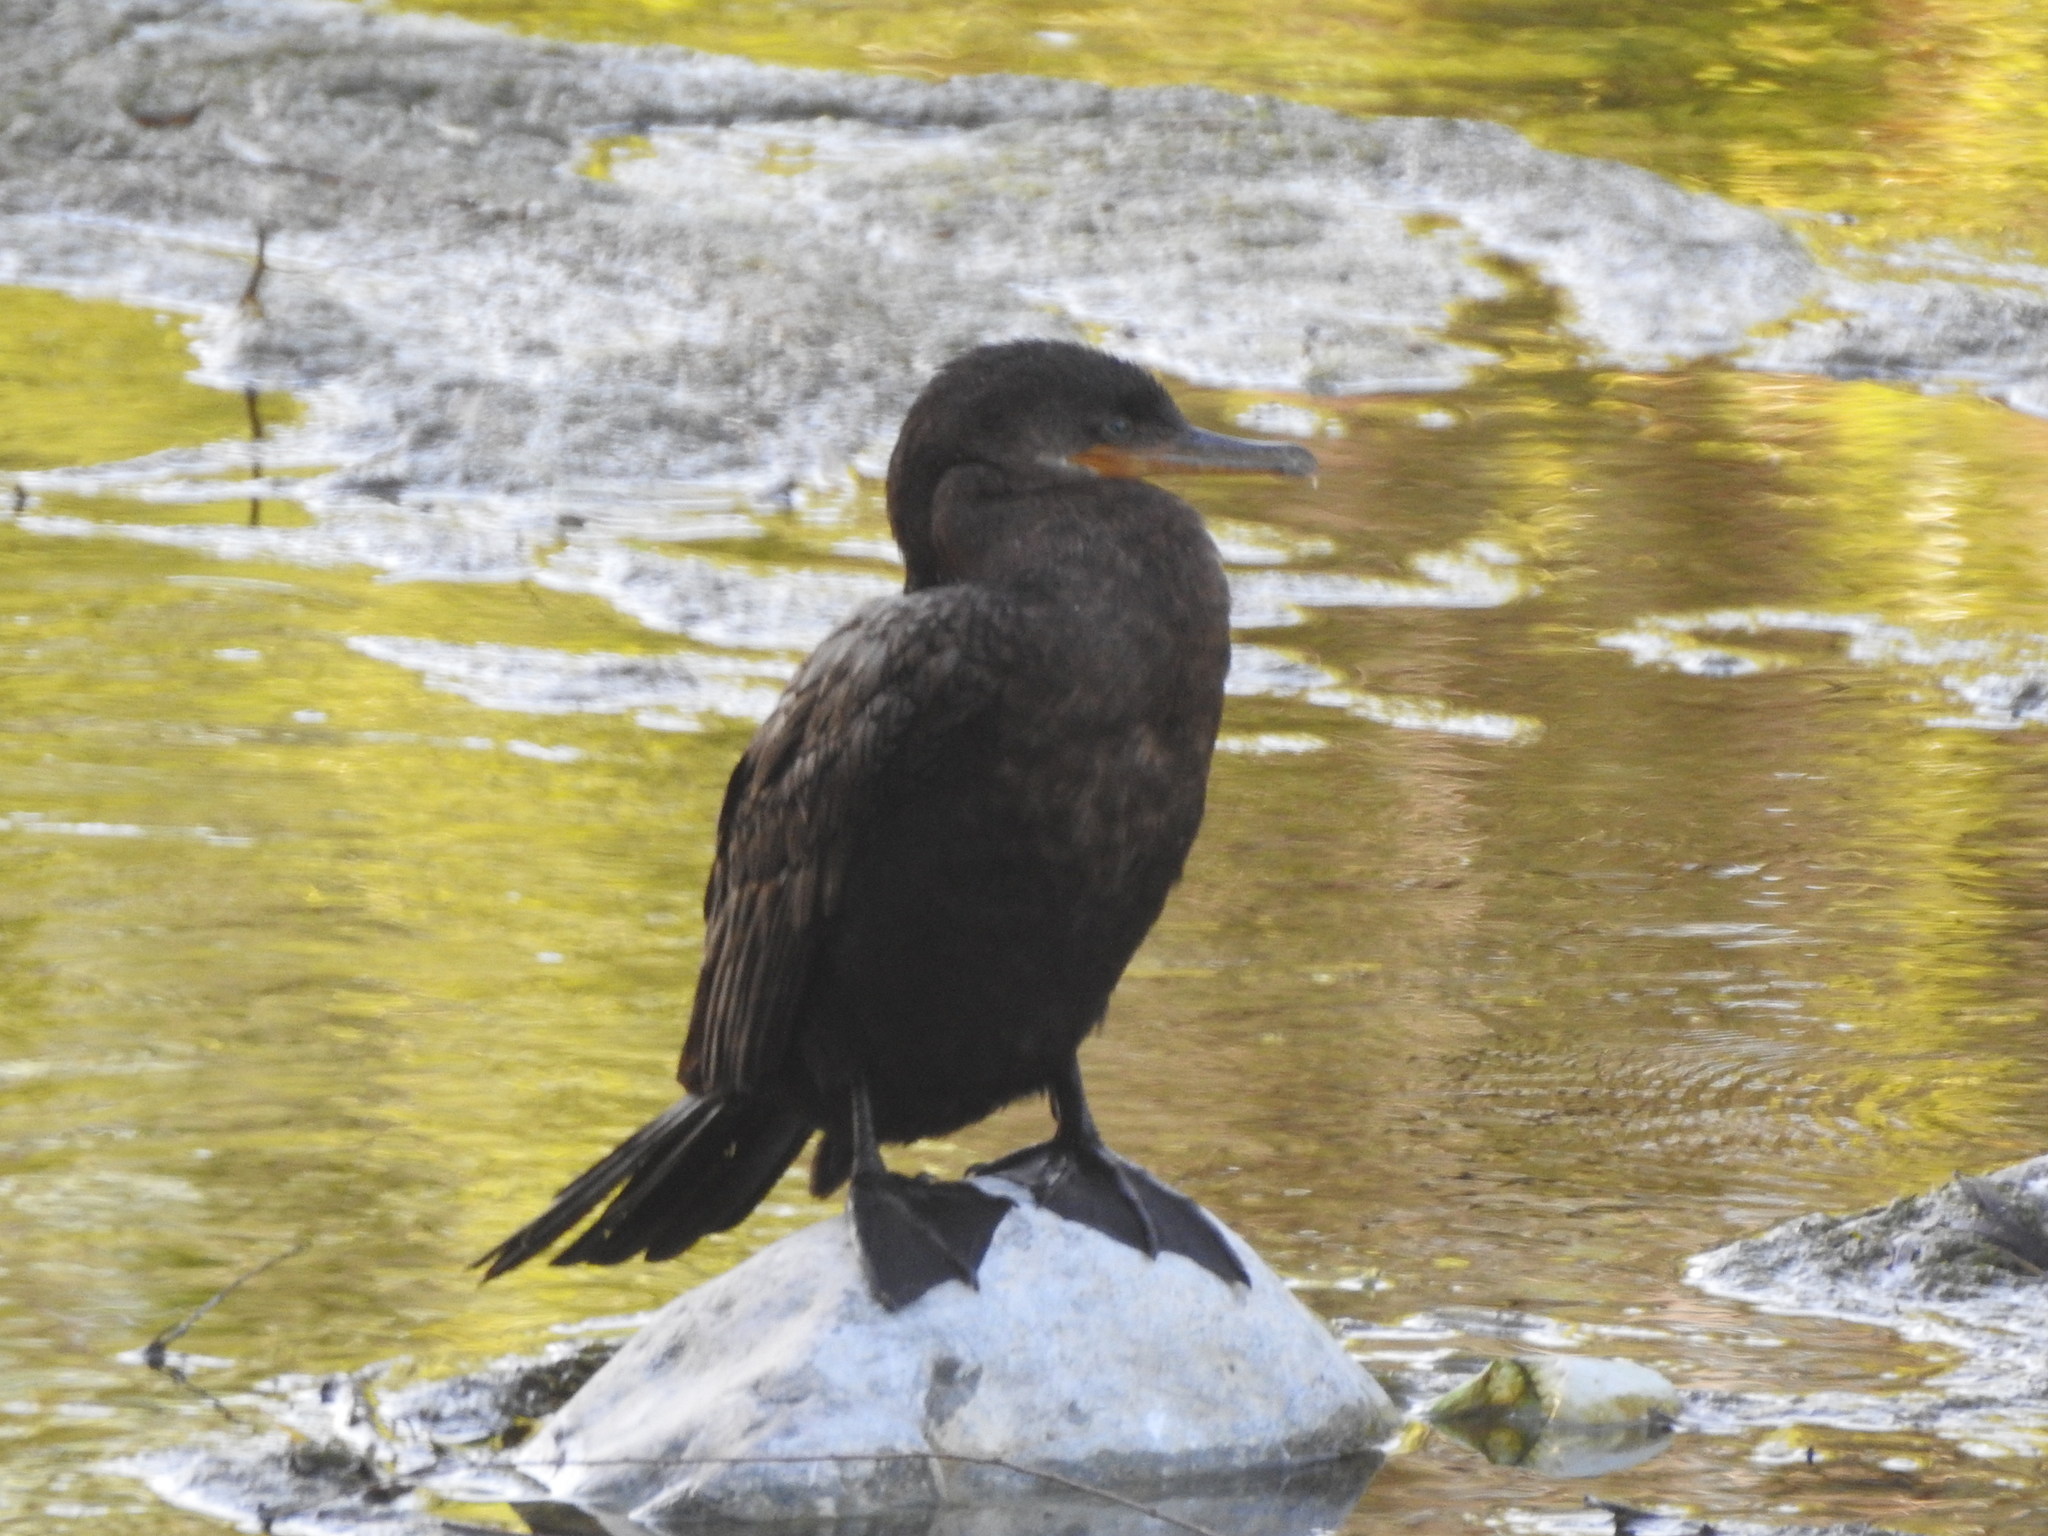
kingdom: Animalia
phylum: Chordata
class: Aves
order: Suliformes
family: Phalacrocoracidae
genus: Phalacrocorax
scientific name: Phalacrocorax brasilianus
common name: Neotropic cormorant
